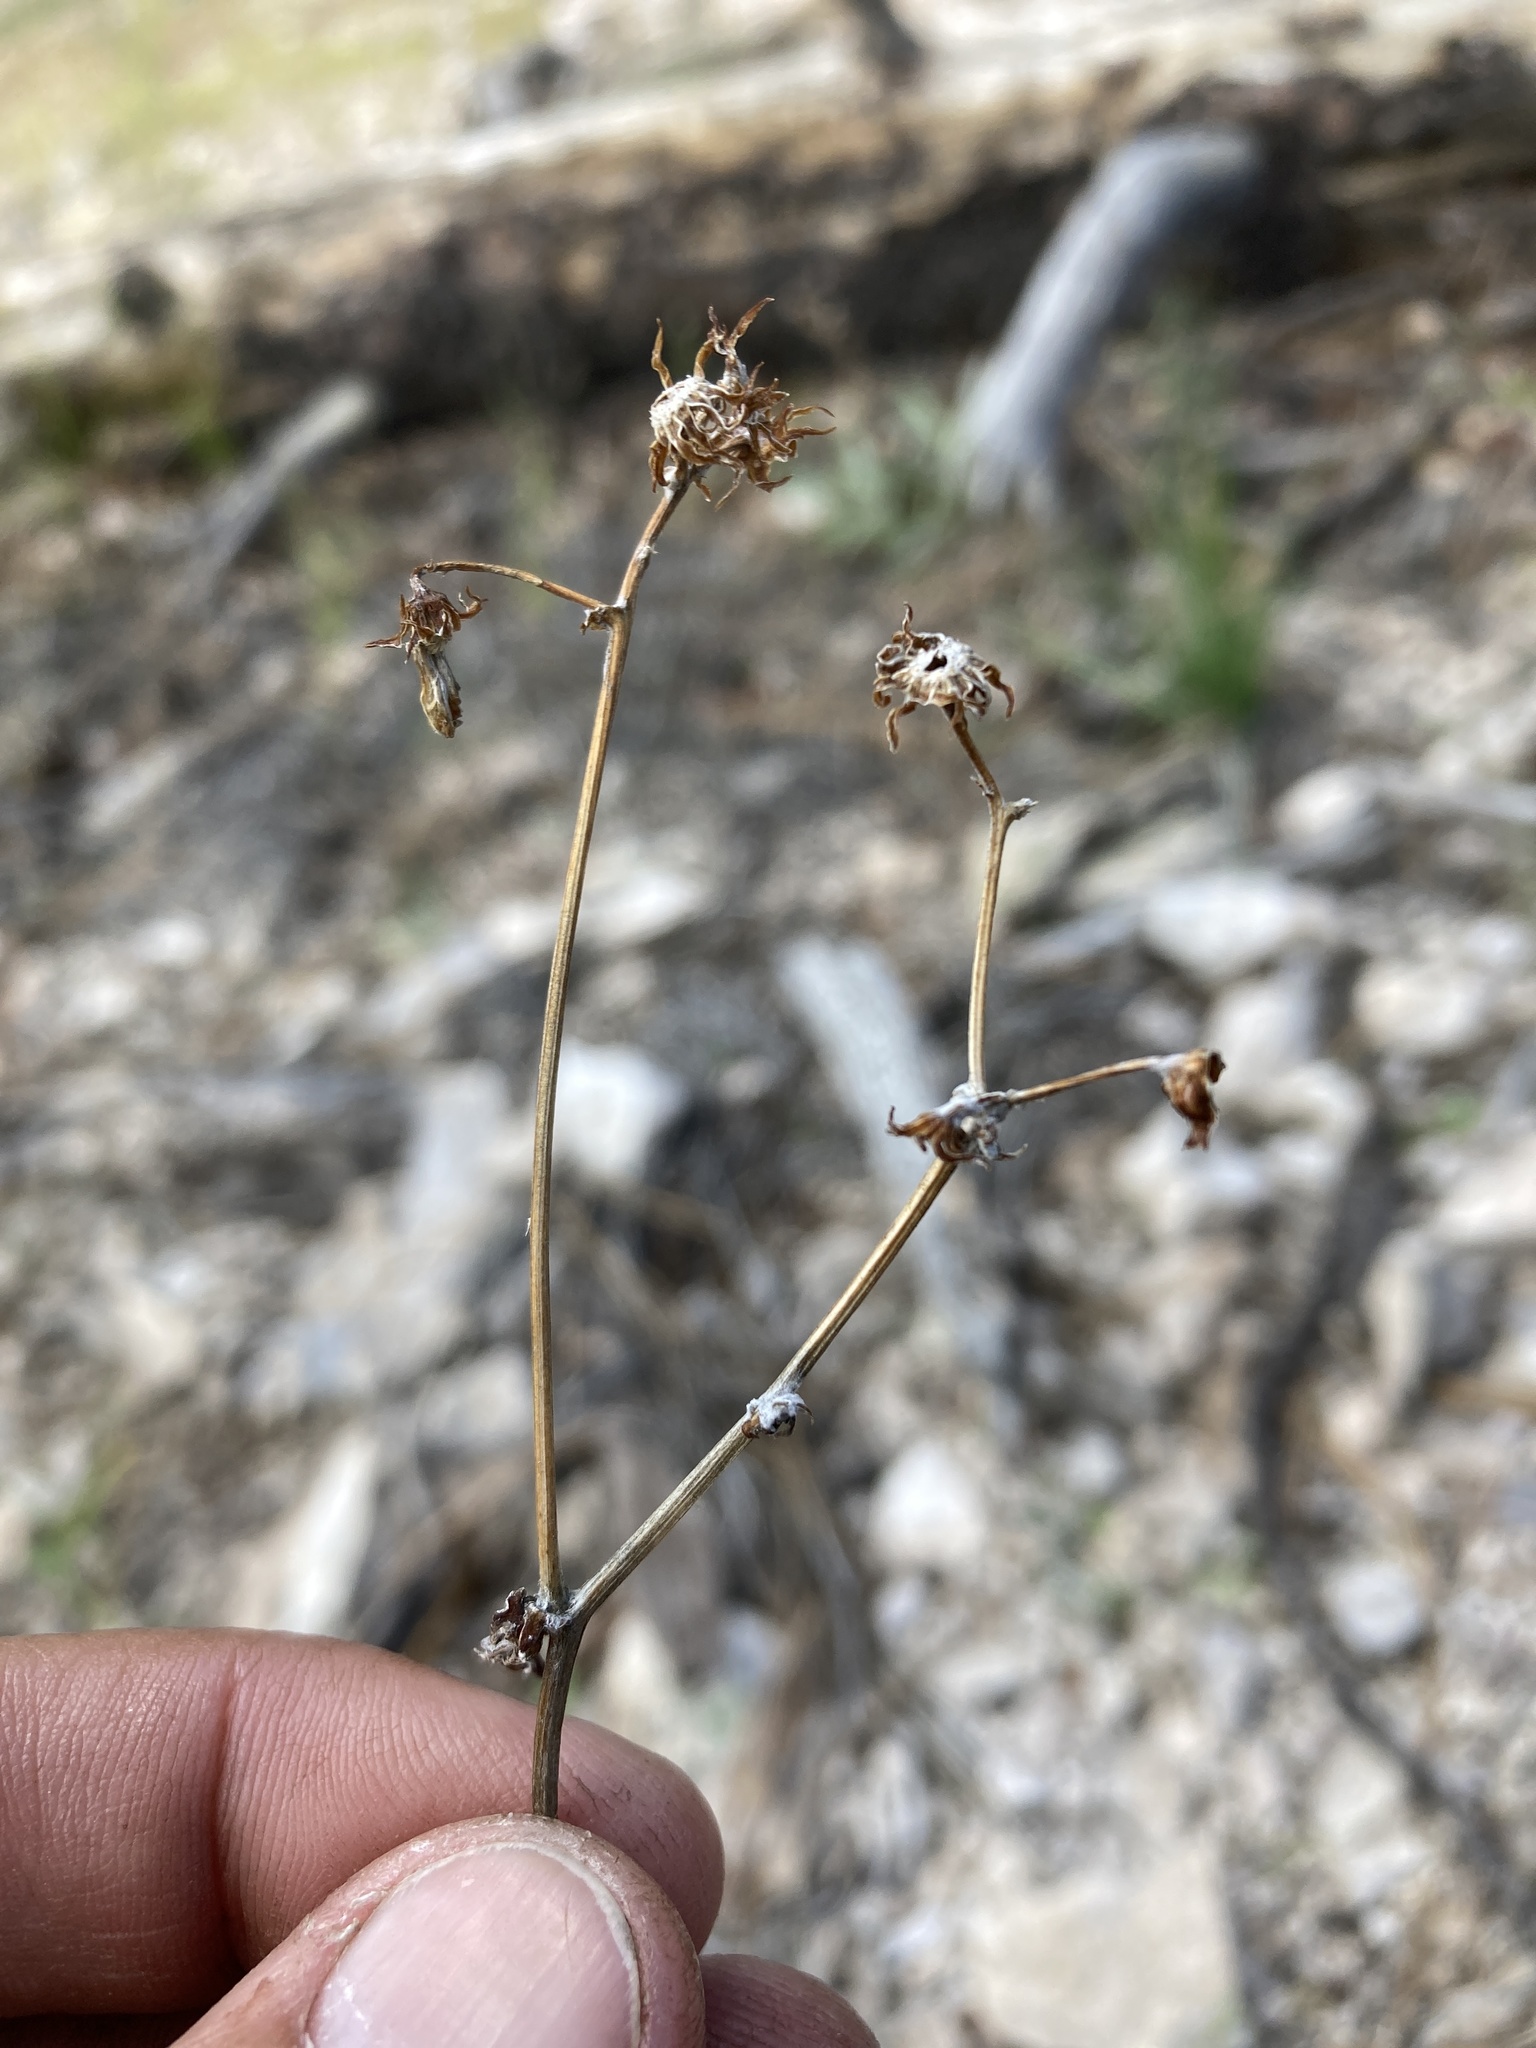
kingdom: Plantae
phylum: Tracheophyta
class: Magnoliopsida
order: Asterales
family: Asteraceae
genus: Packera
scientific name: Packera cynthioides
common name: Mountain ragwort
